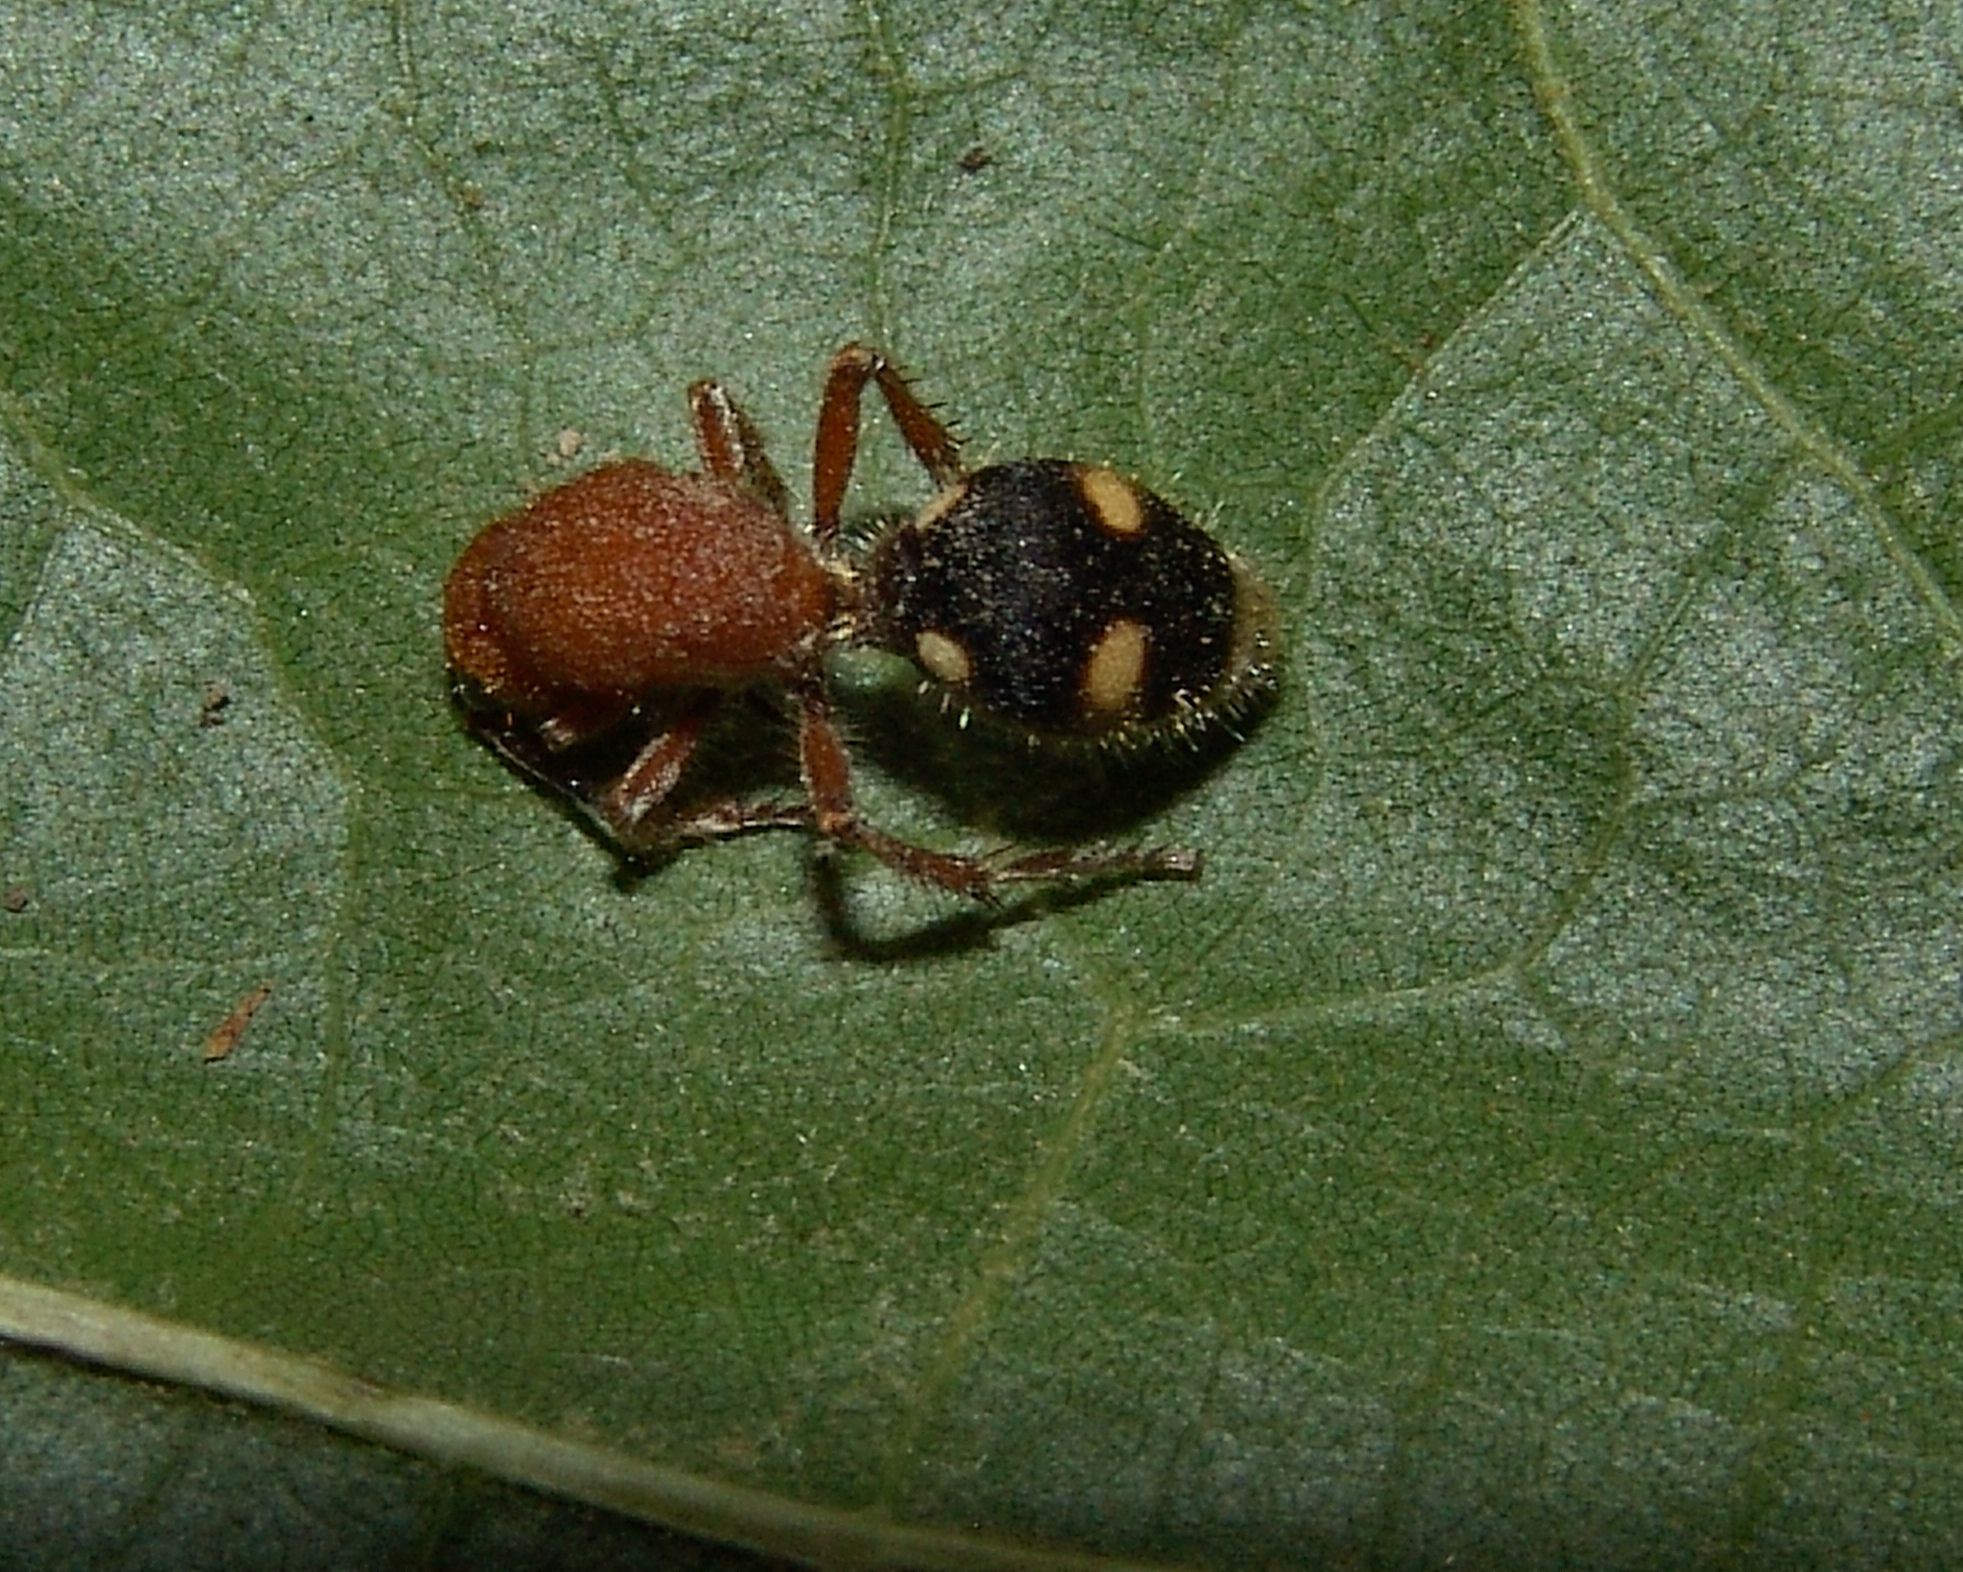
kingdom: Animalia
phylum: Arthropoda
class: Insecta
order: Hymenoptera
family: Mutillidae
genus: Dasymutilla
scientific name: Dasymutilla
